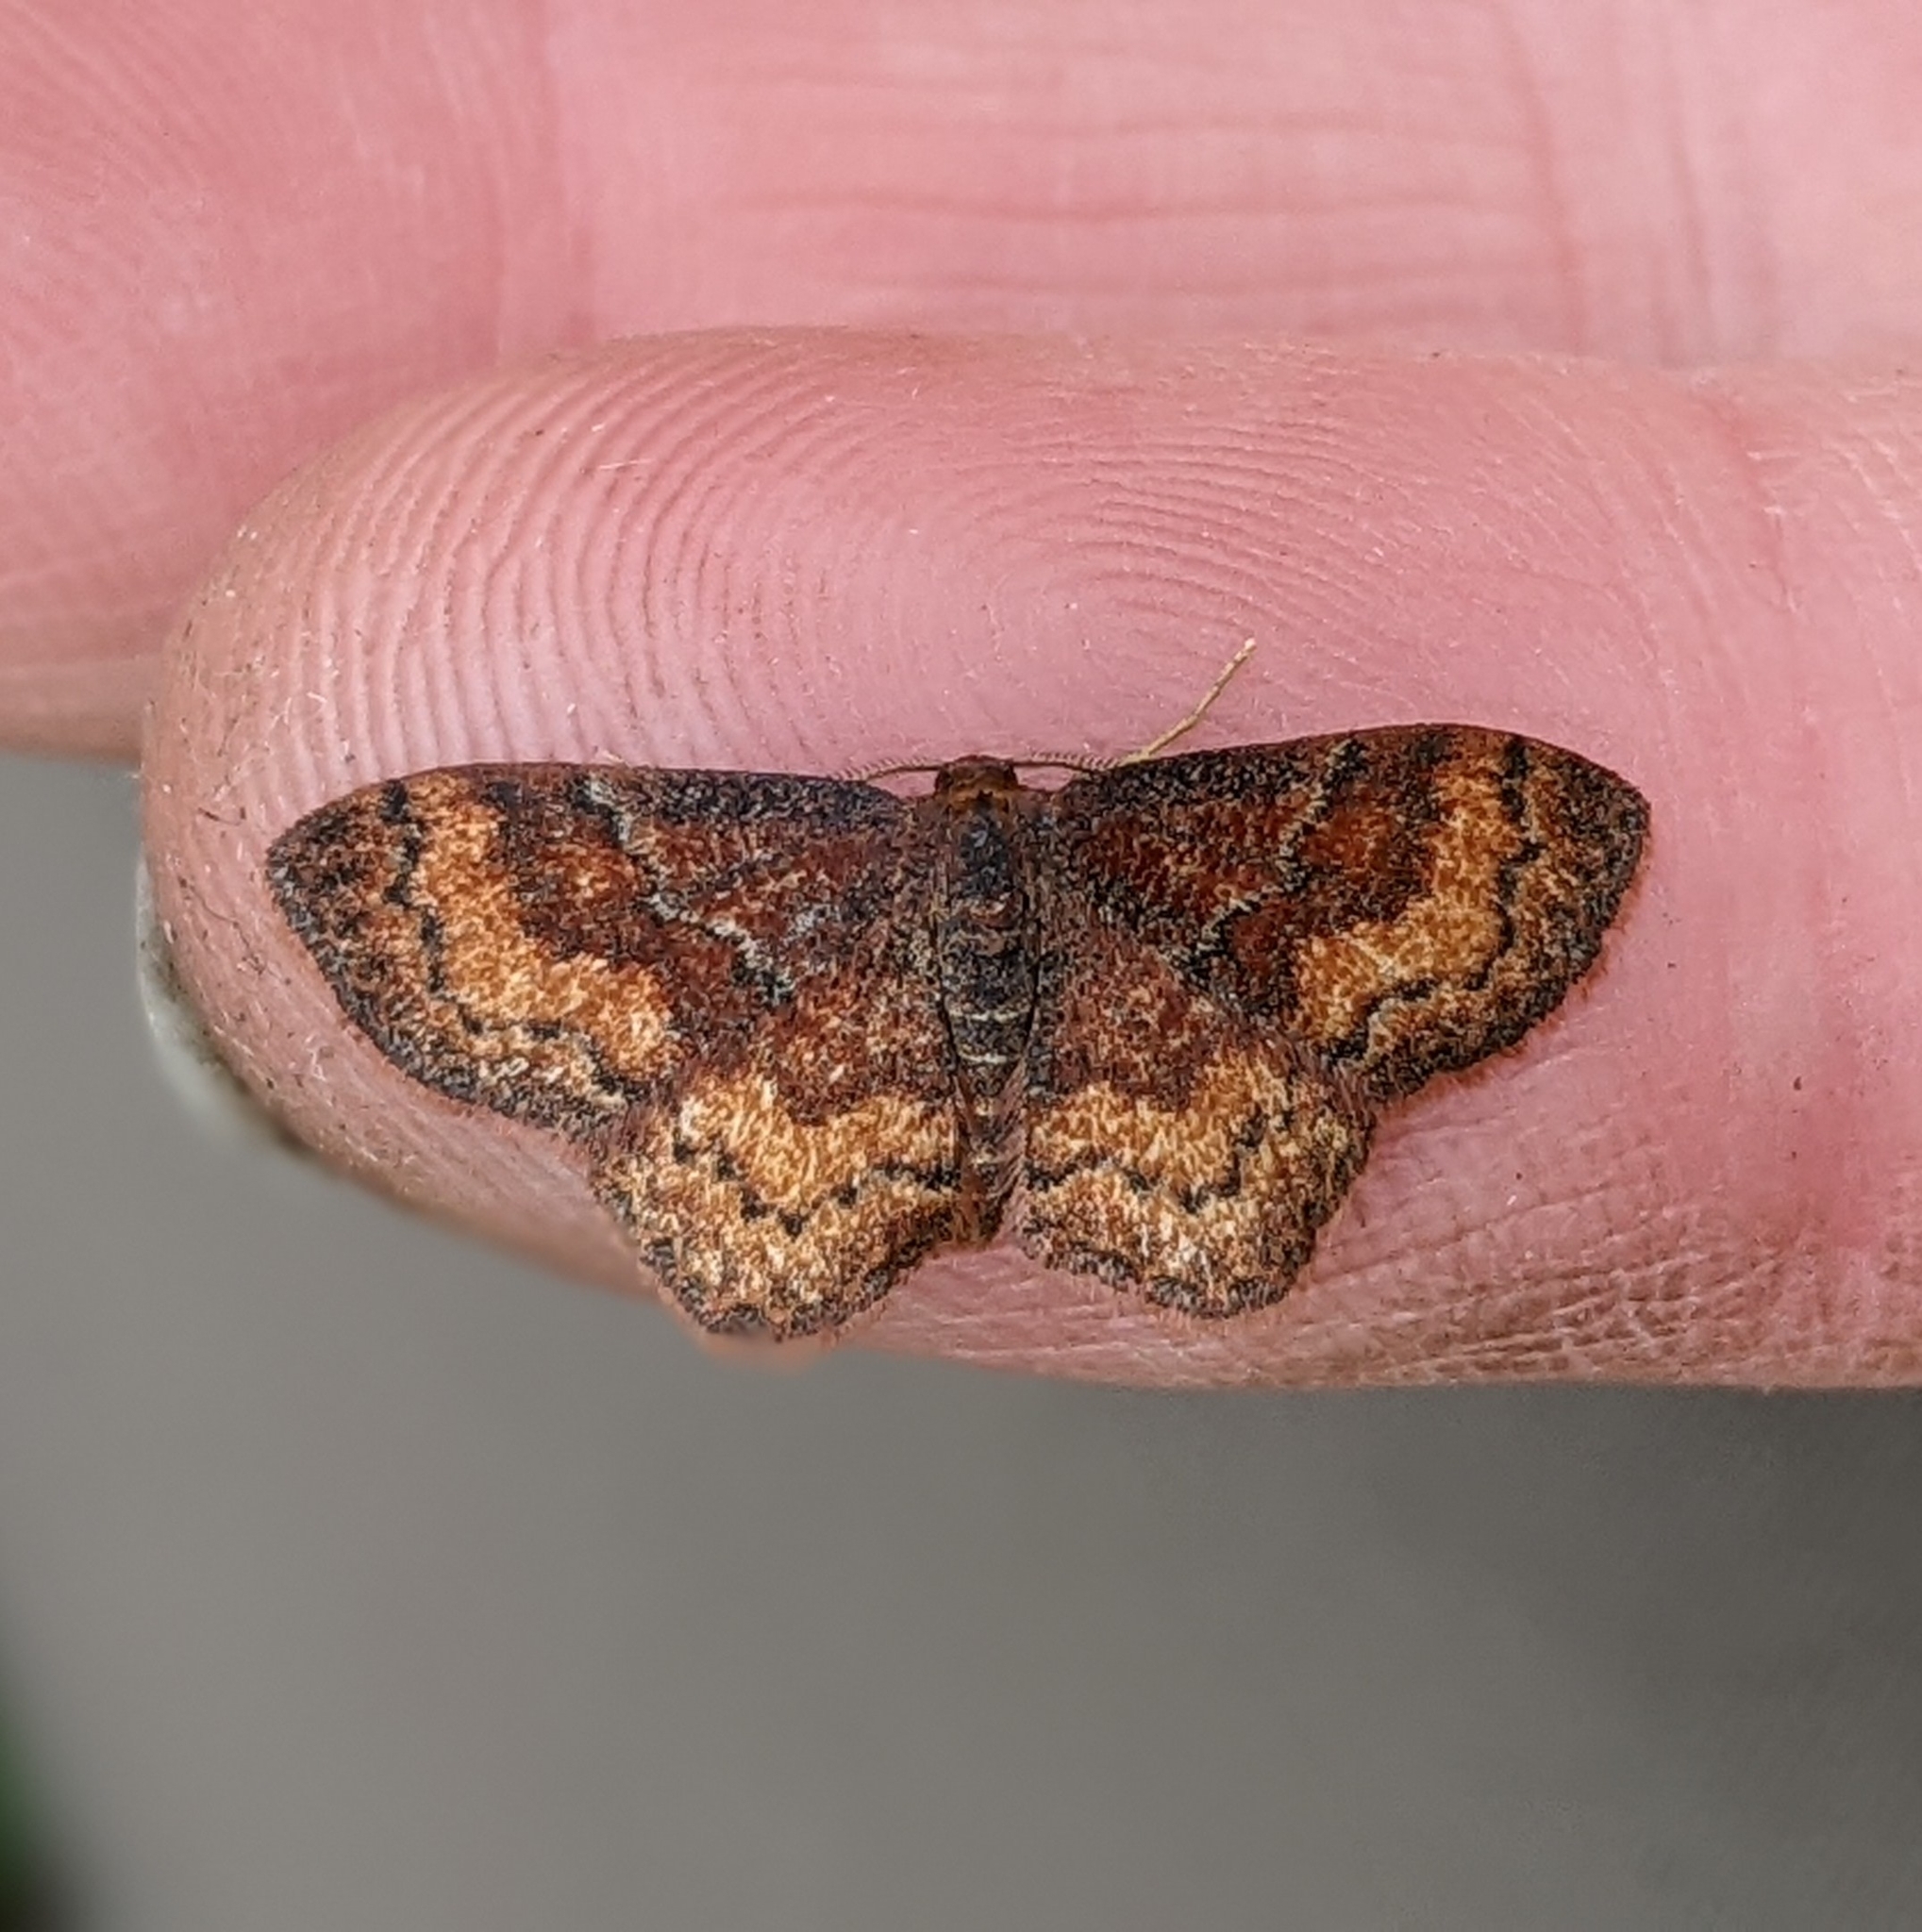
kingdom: Animalia
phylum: Arthropoda
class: Insecta
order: Lepidoptera
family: Geometridae
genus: Leptostales
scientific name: Leptostales rubromarginaria
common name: Dark-ribboned wave
